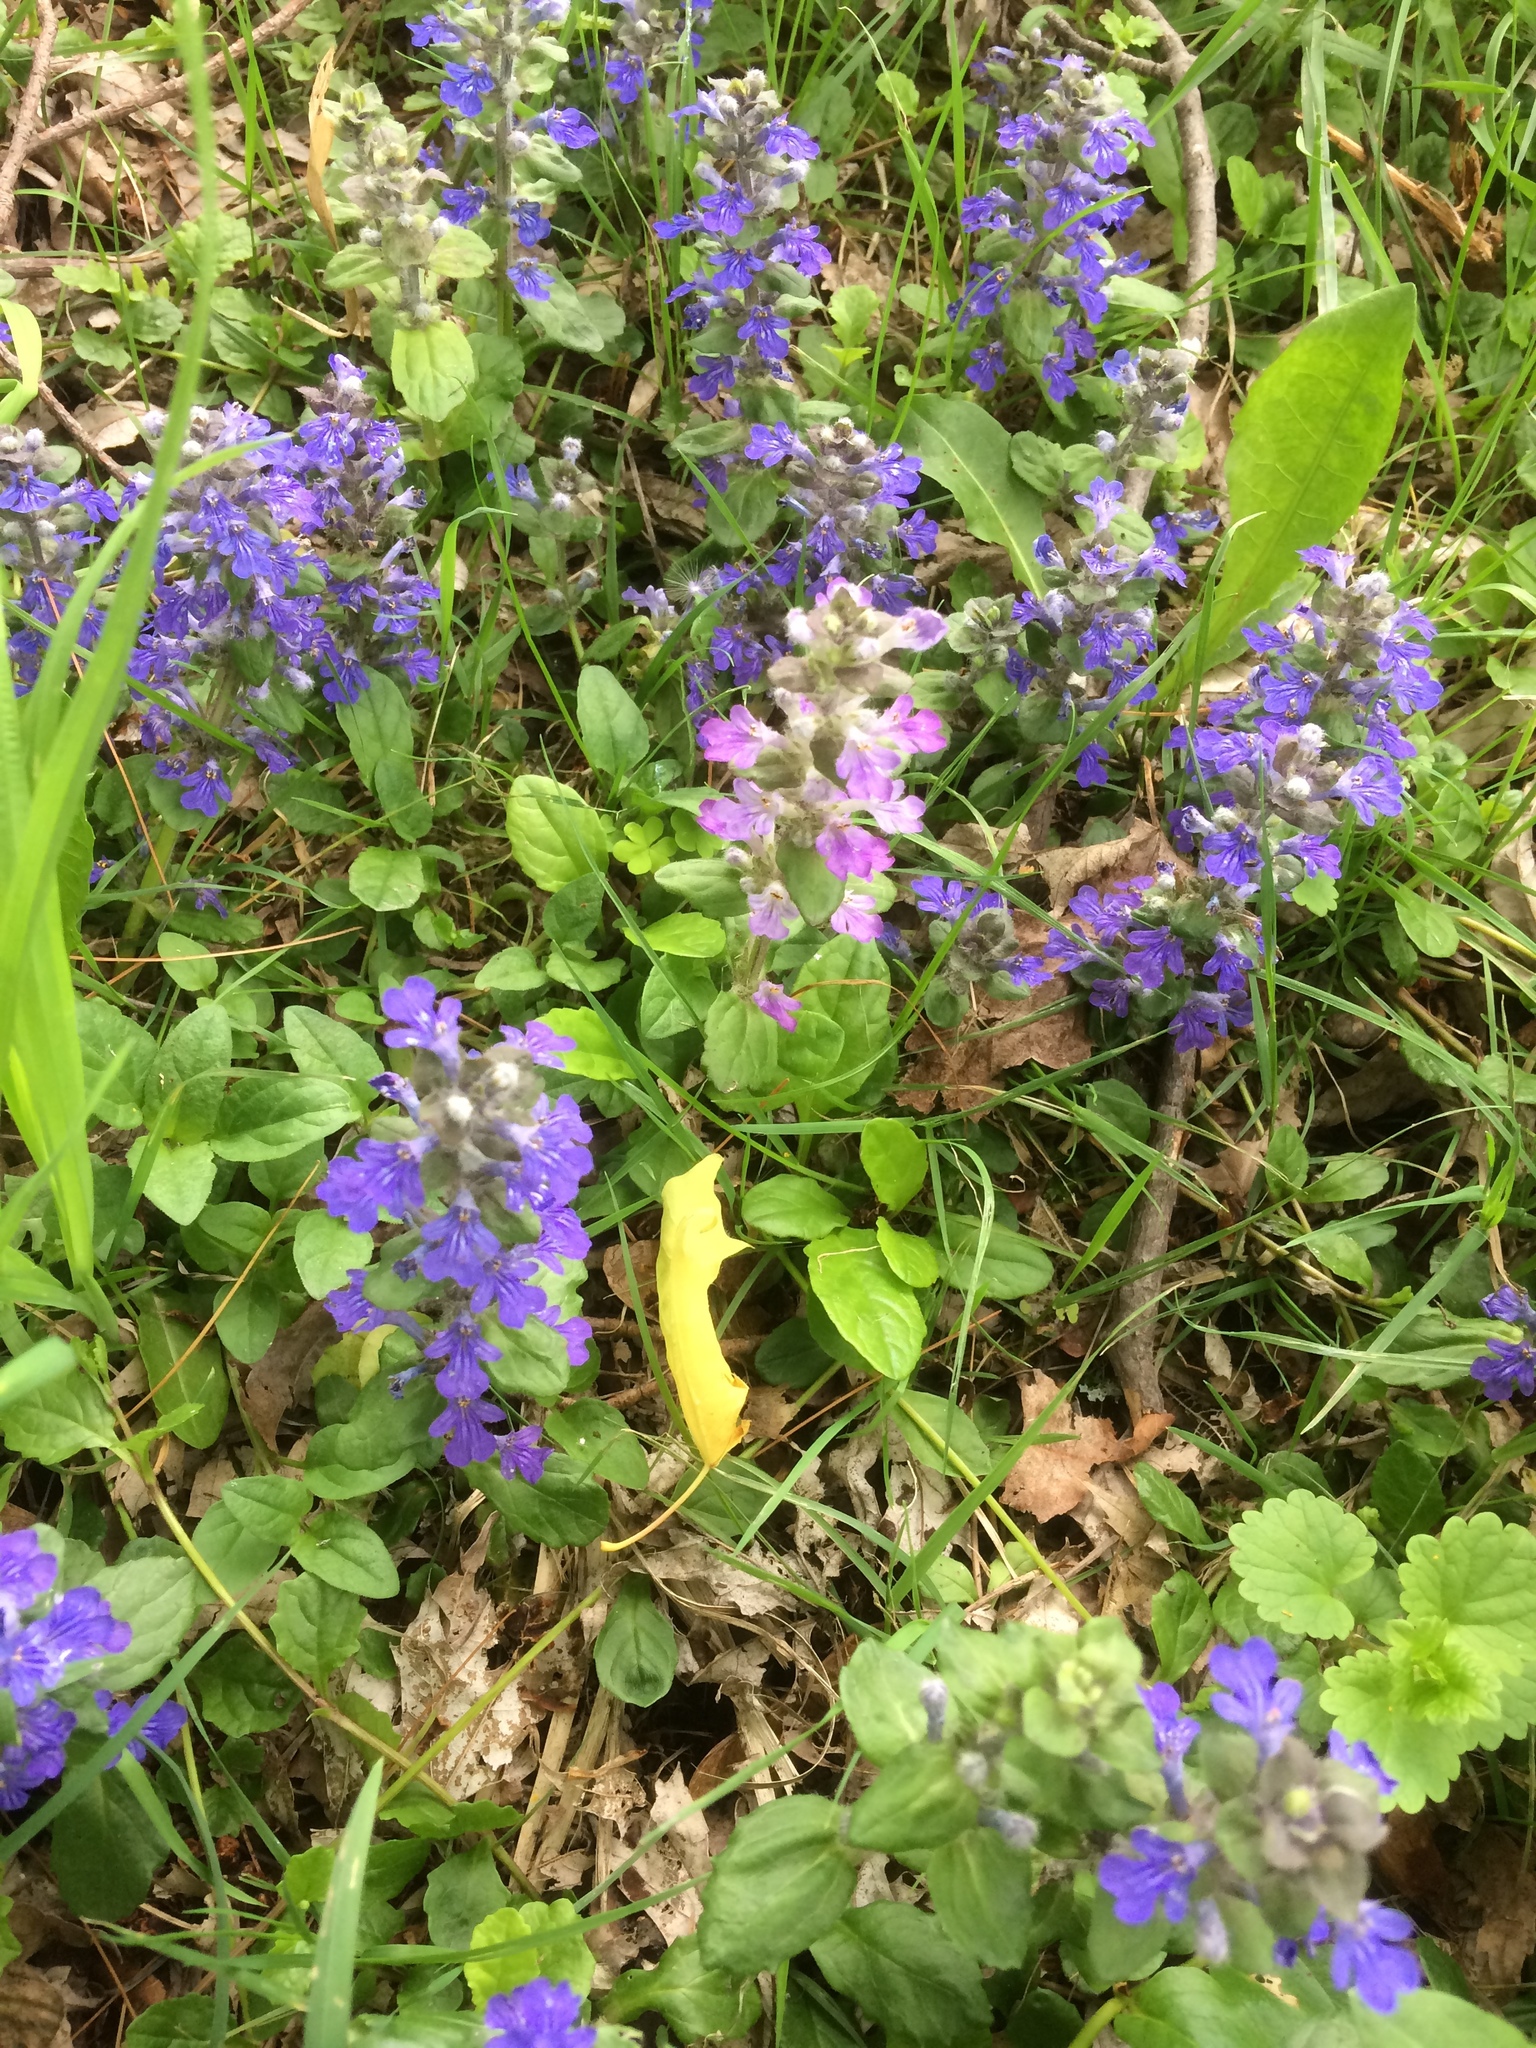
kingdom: Plantae
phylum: Tracheophyta
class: Magnoliopsida
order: Lamiales
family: Lamiaceae
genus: Ajuga
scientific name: Ajuga reptans
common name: Bugle
